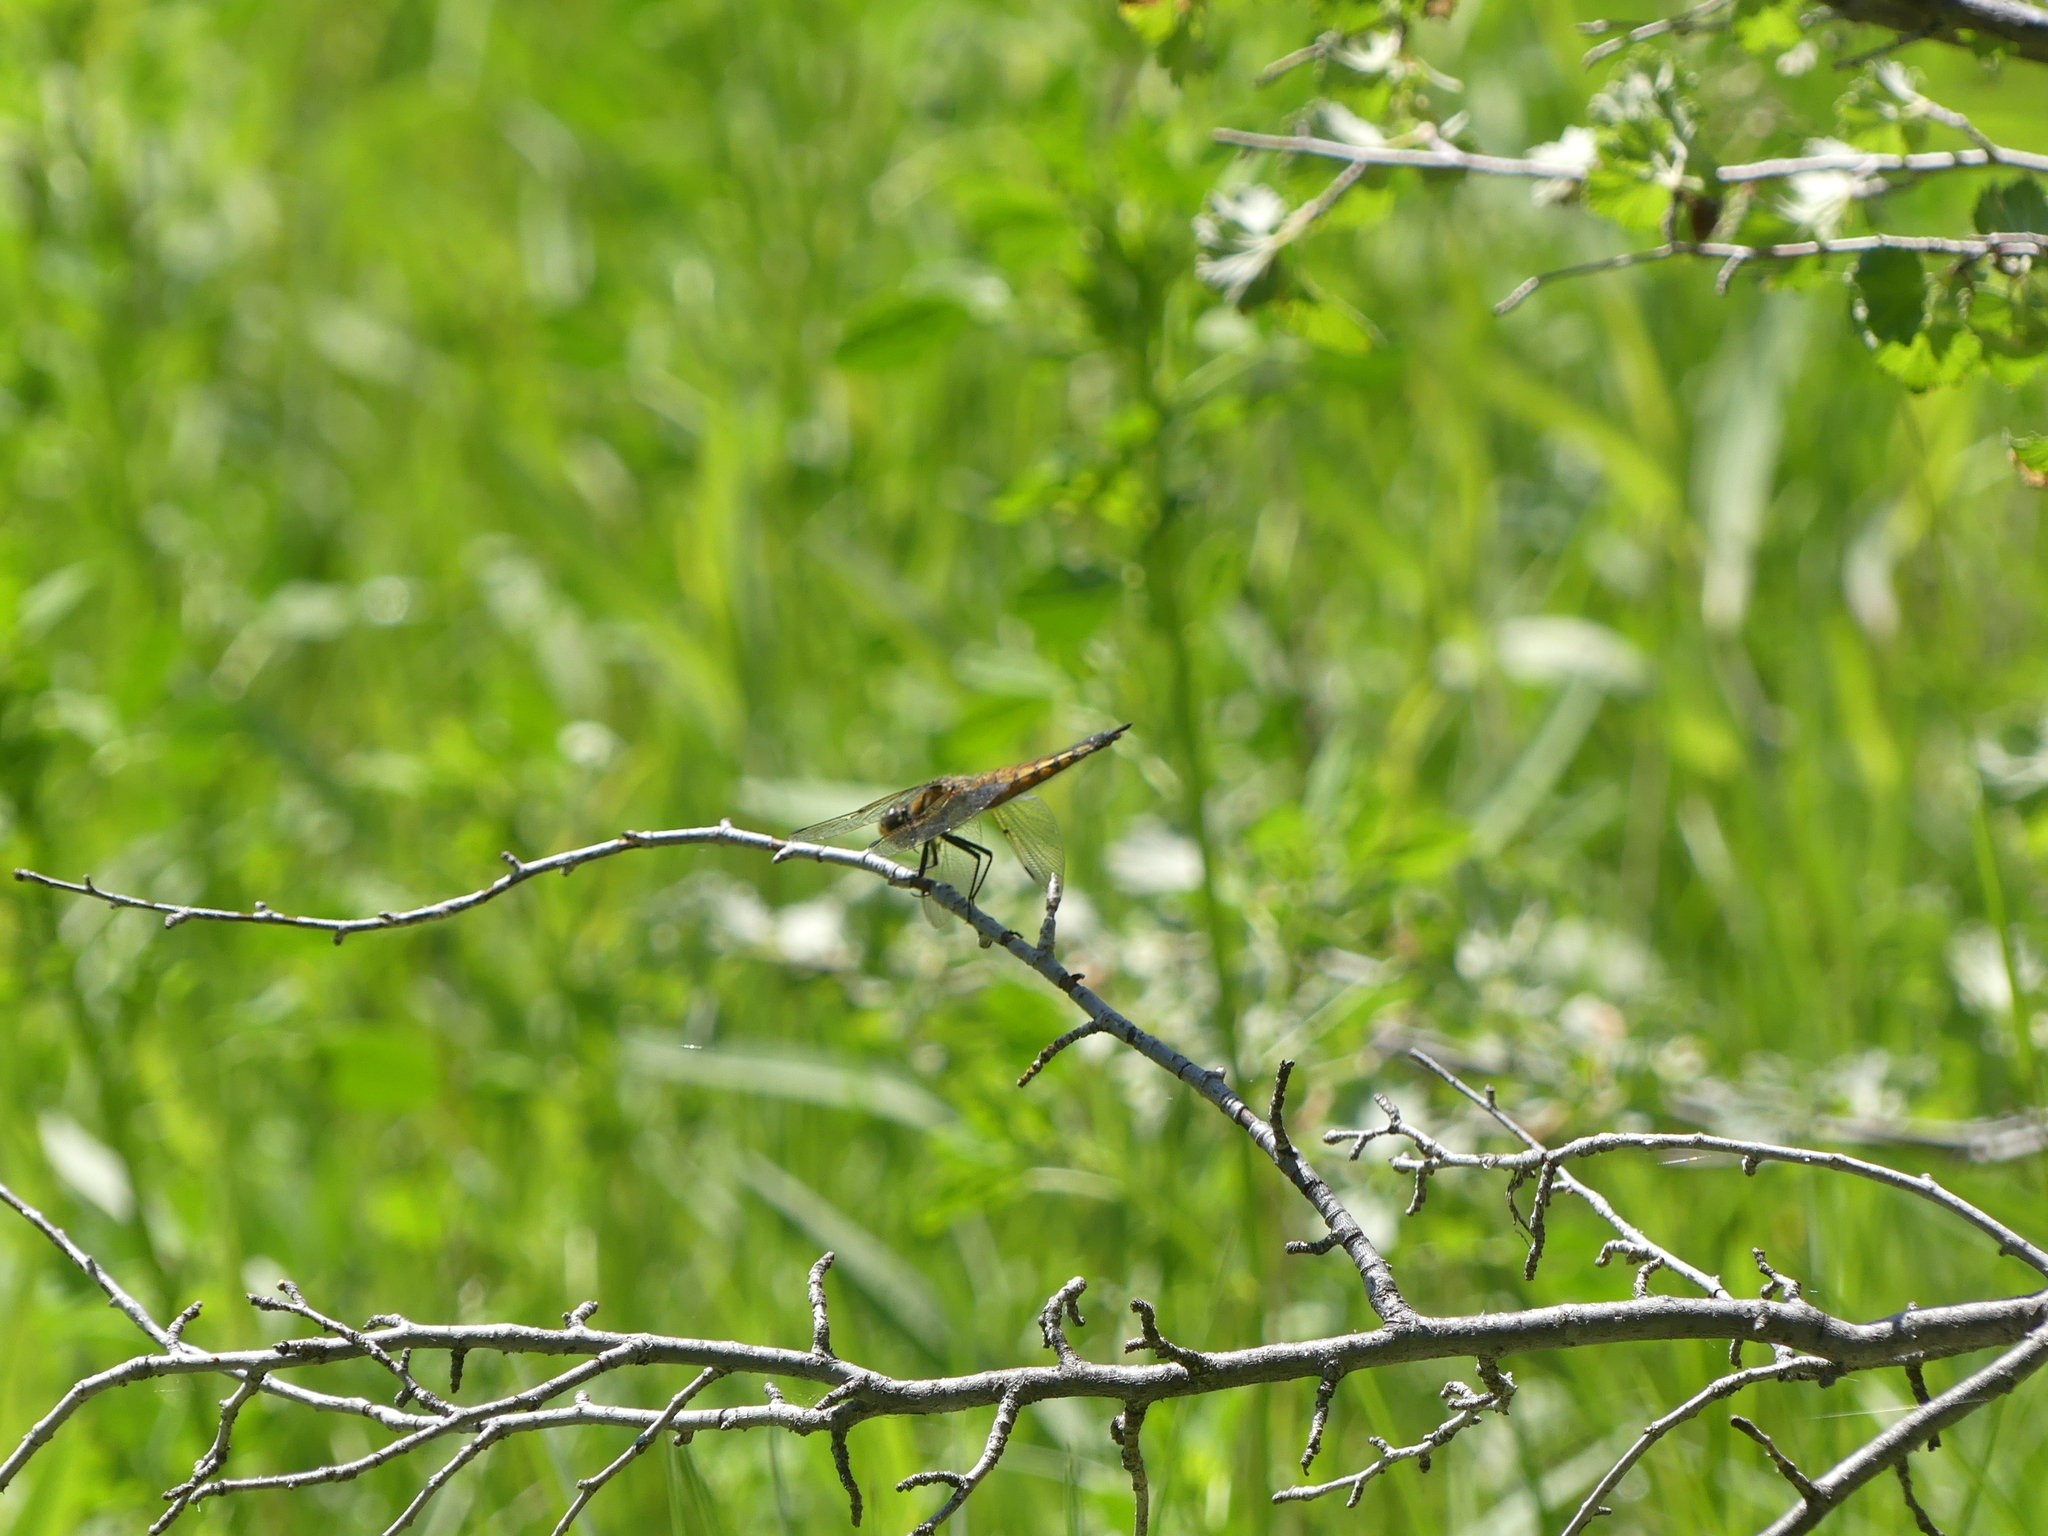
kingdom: Animalia
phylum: Arthropoda
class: Insecta
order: Odonata
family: Libellulidae
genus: Libellula
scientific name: Libellula quadrimaculata
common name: Four-spotted chaser
